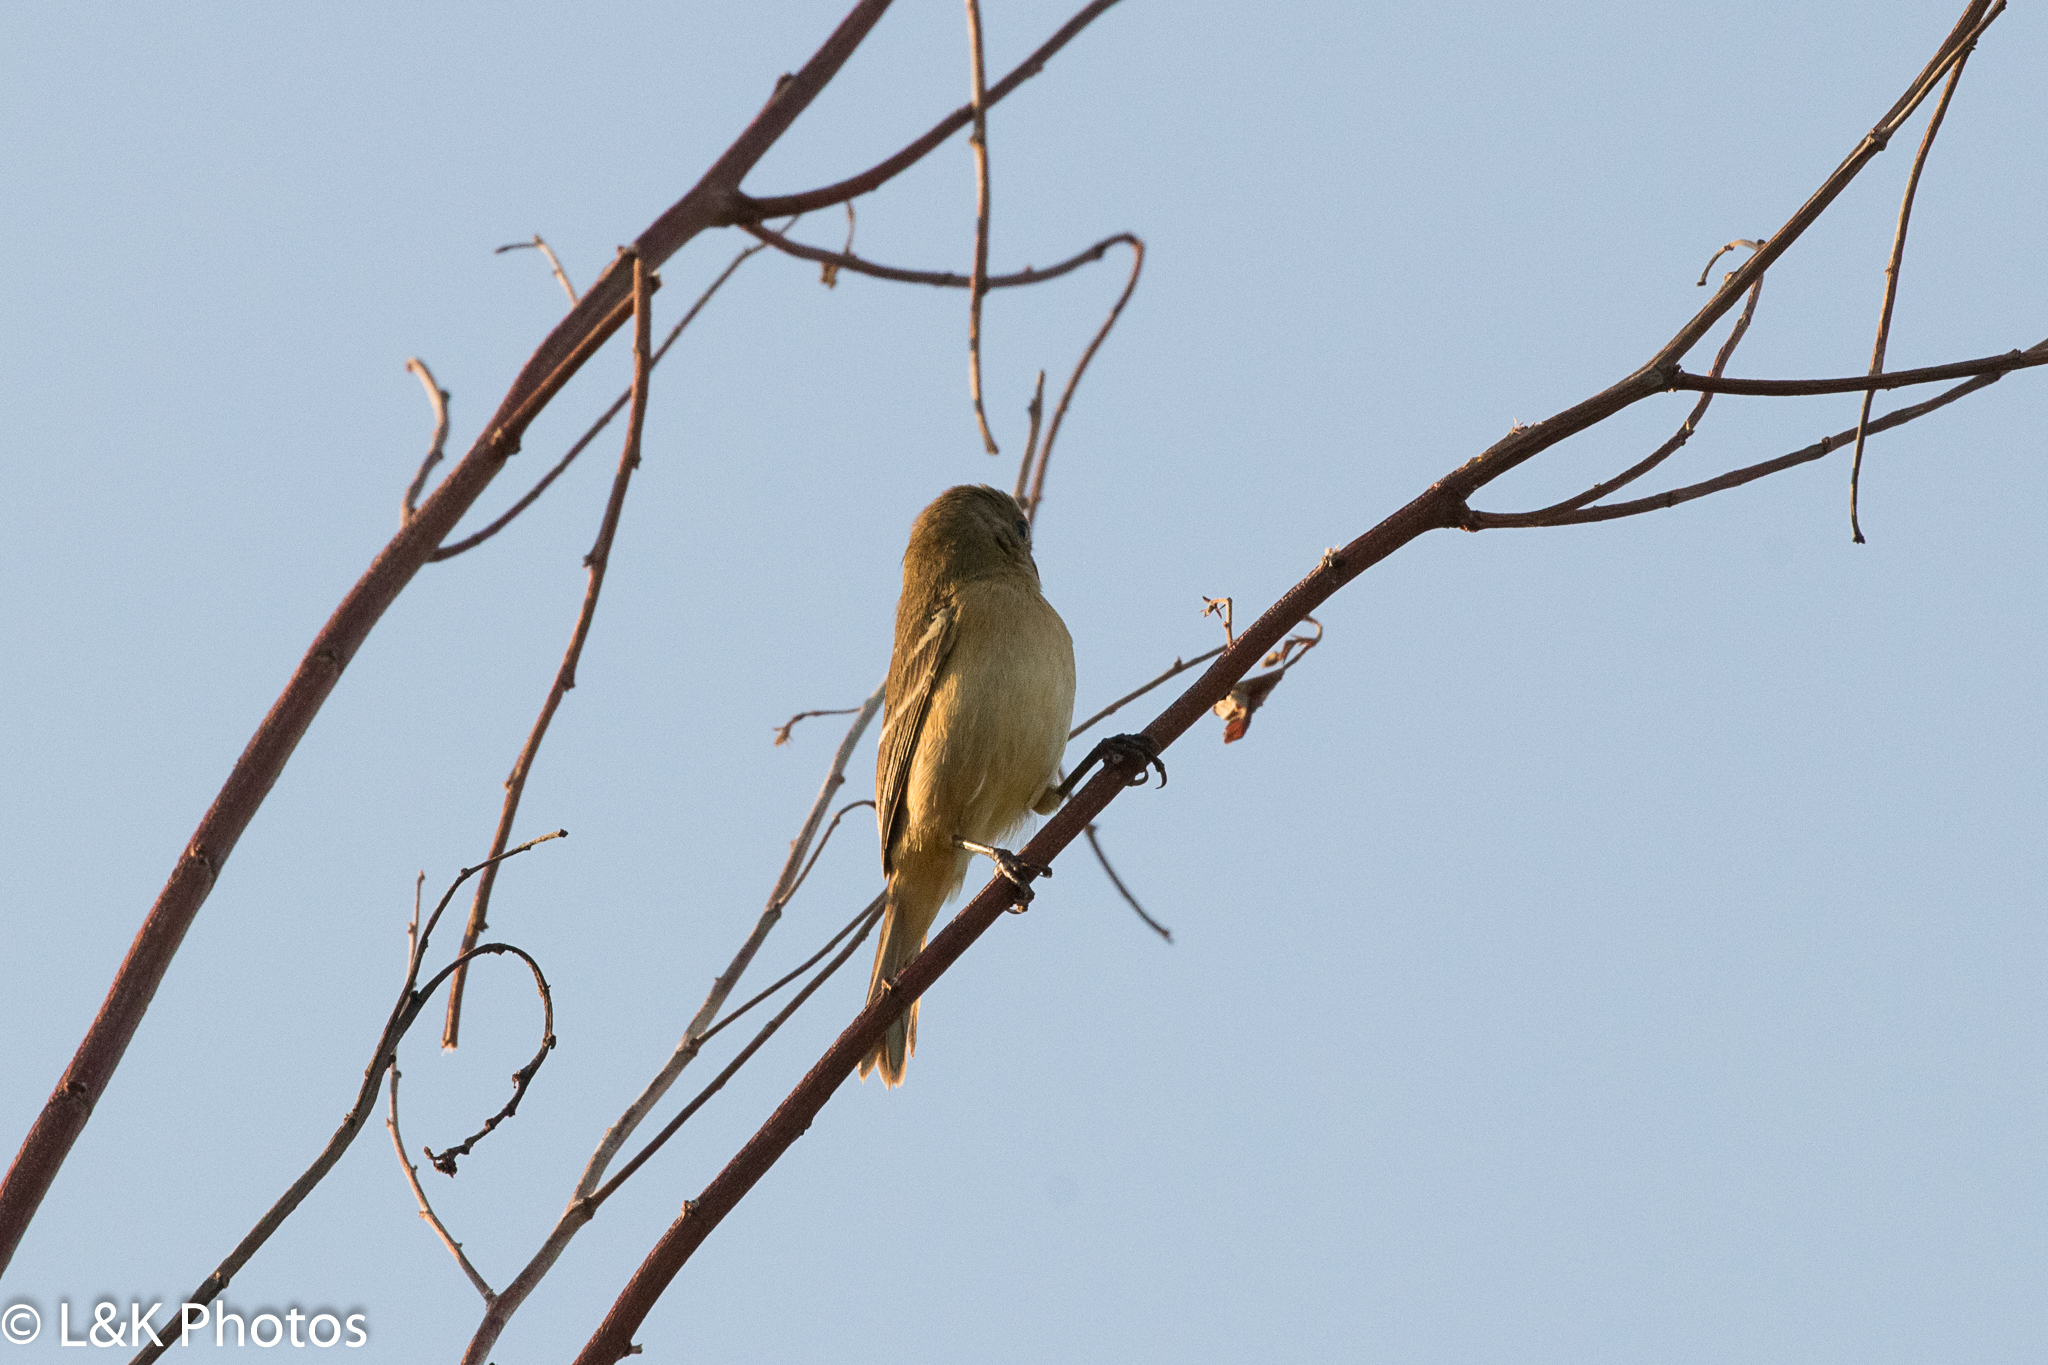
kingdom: Animalia
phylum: Chordata
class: Aves
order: Passeriformes
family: Thraupidae
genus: Sporophila
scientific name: Sporophila morelleti
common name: Morelet's seedeater
